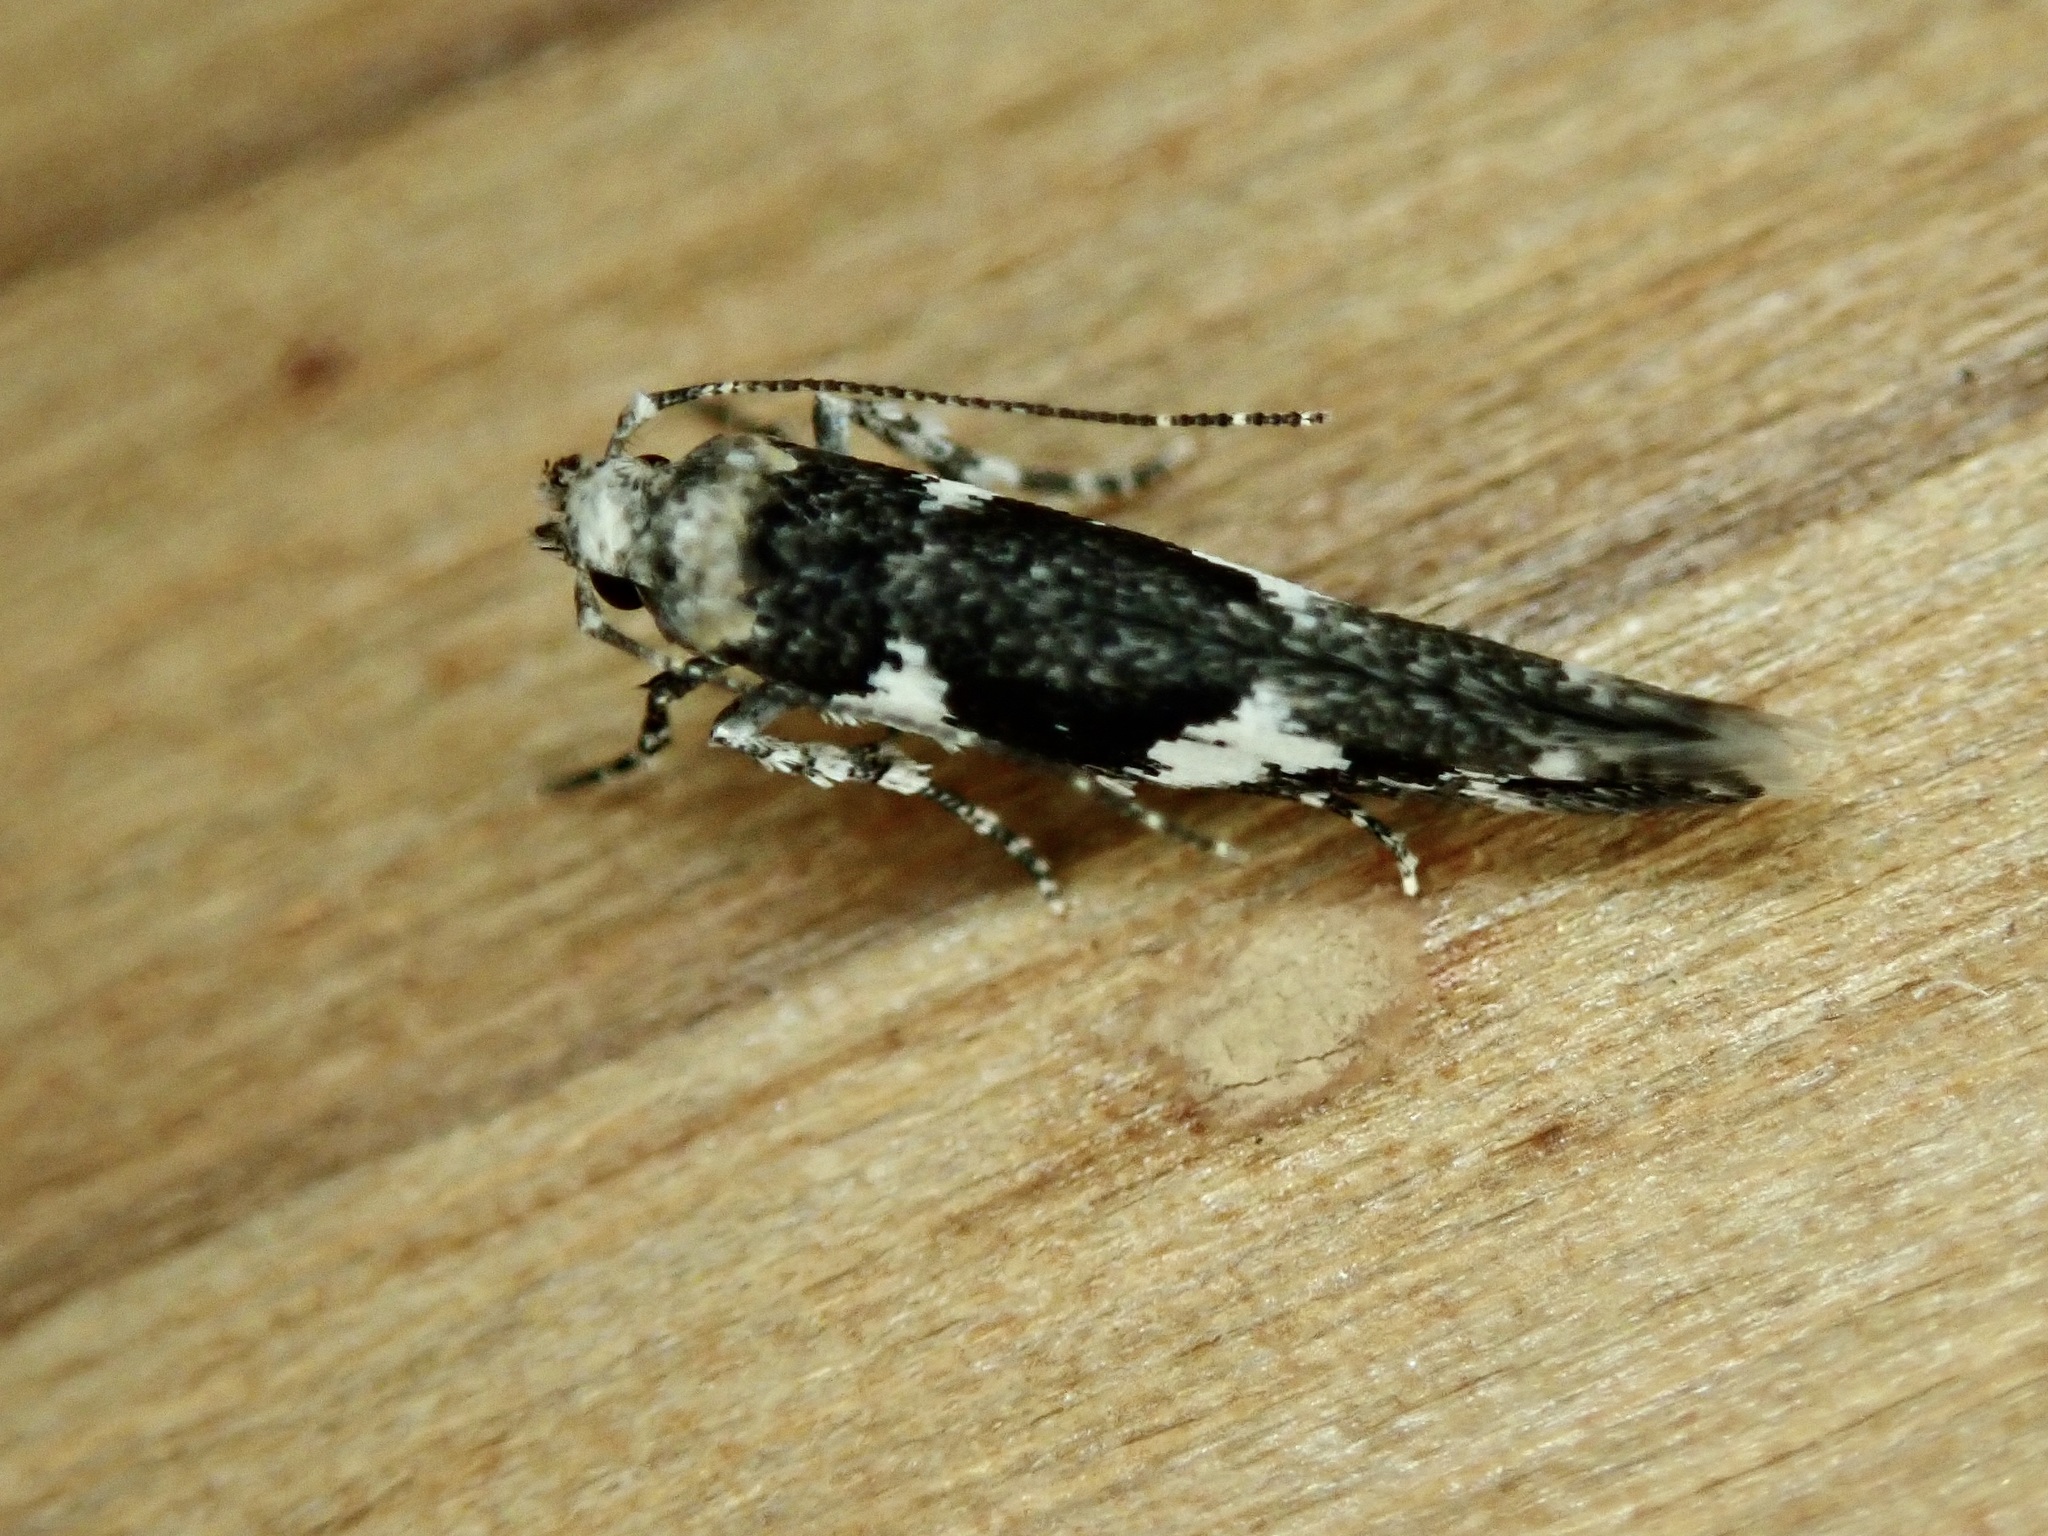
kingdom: Animalia
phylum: Arthropoda
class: Insecta
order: Lepidoptera
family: Cosmopterigidae
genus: Pyroderces
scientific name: Pyroderces deamatella
